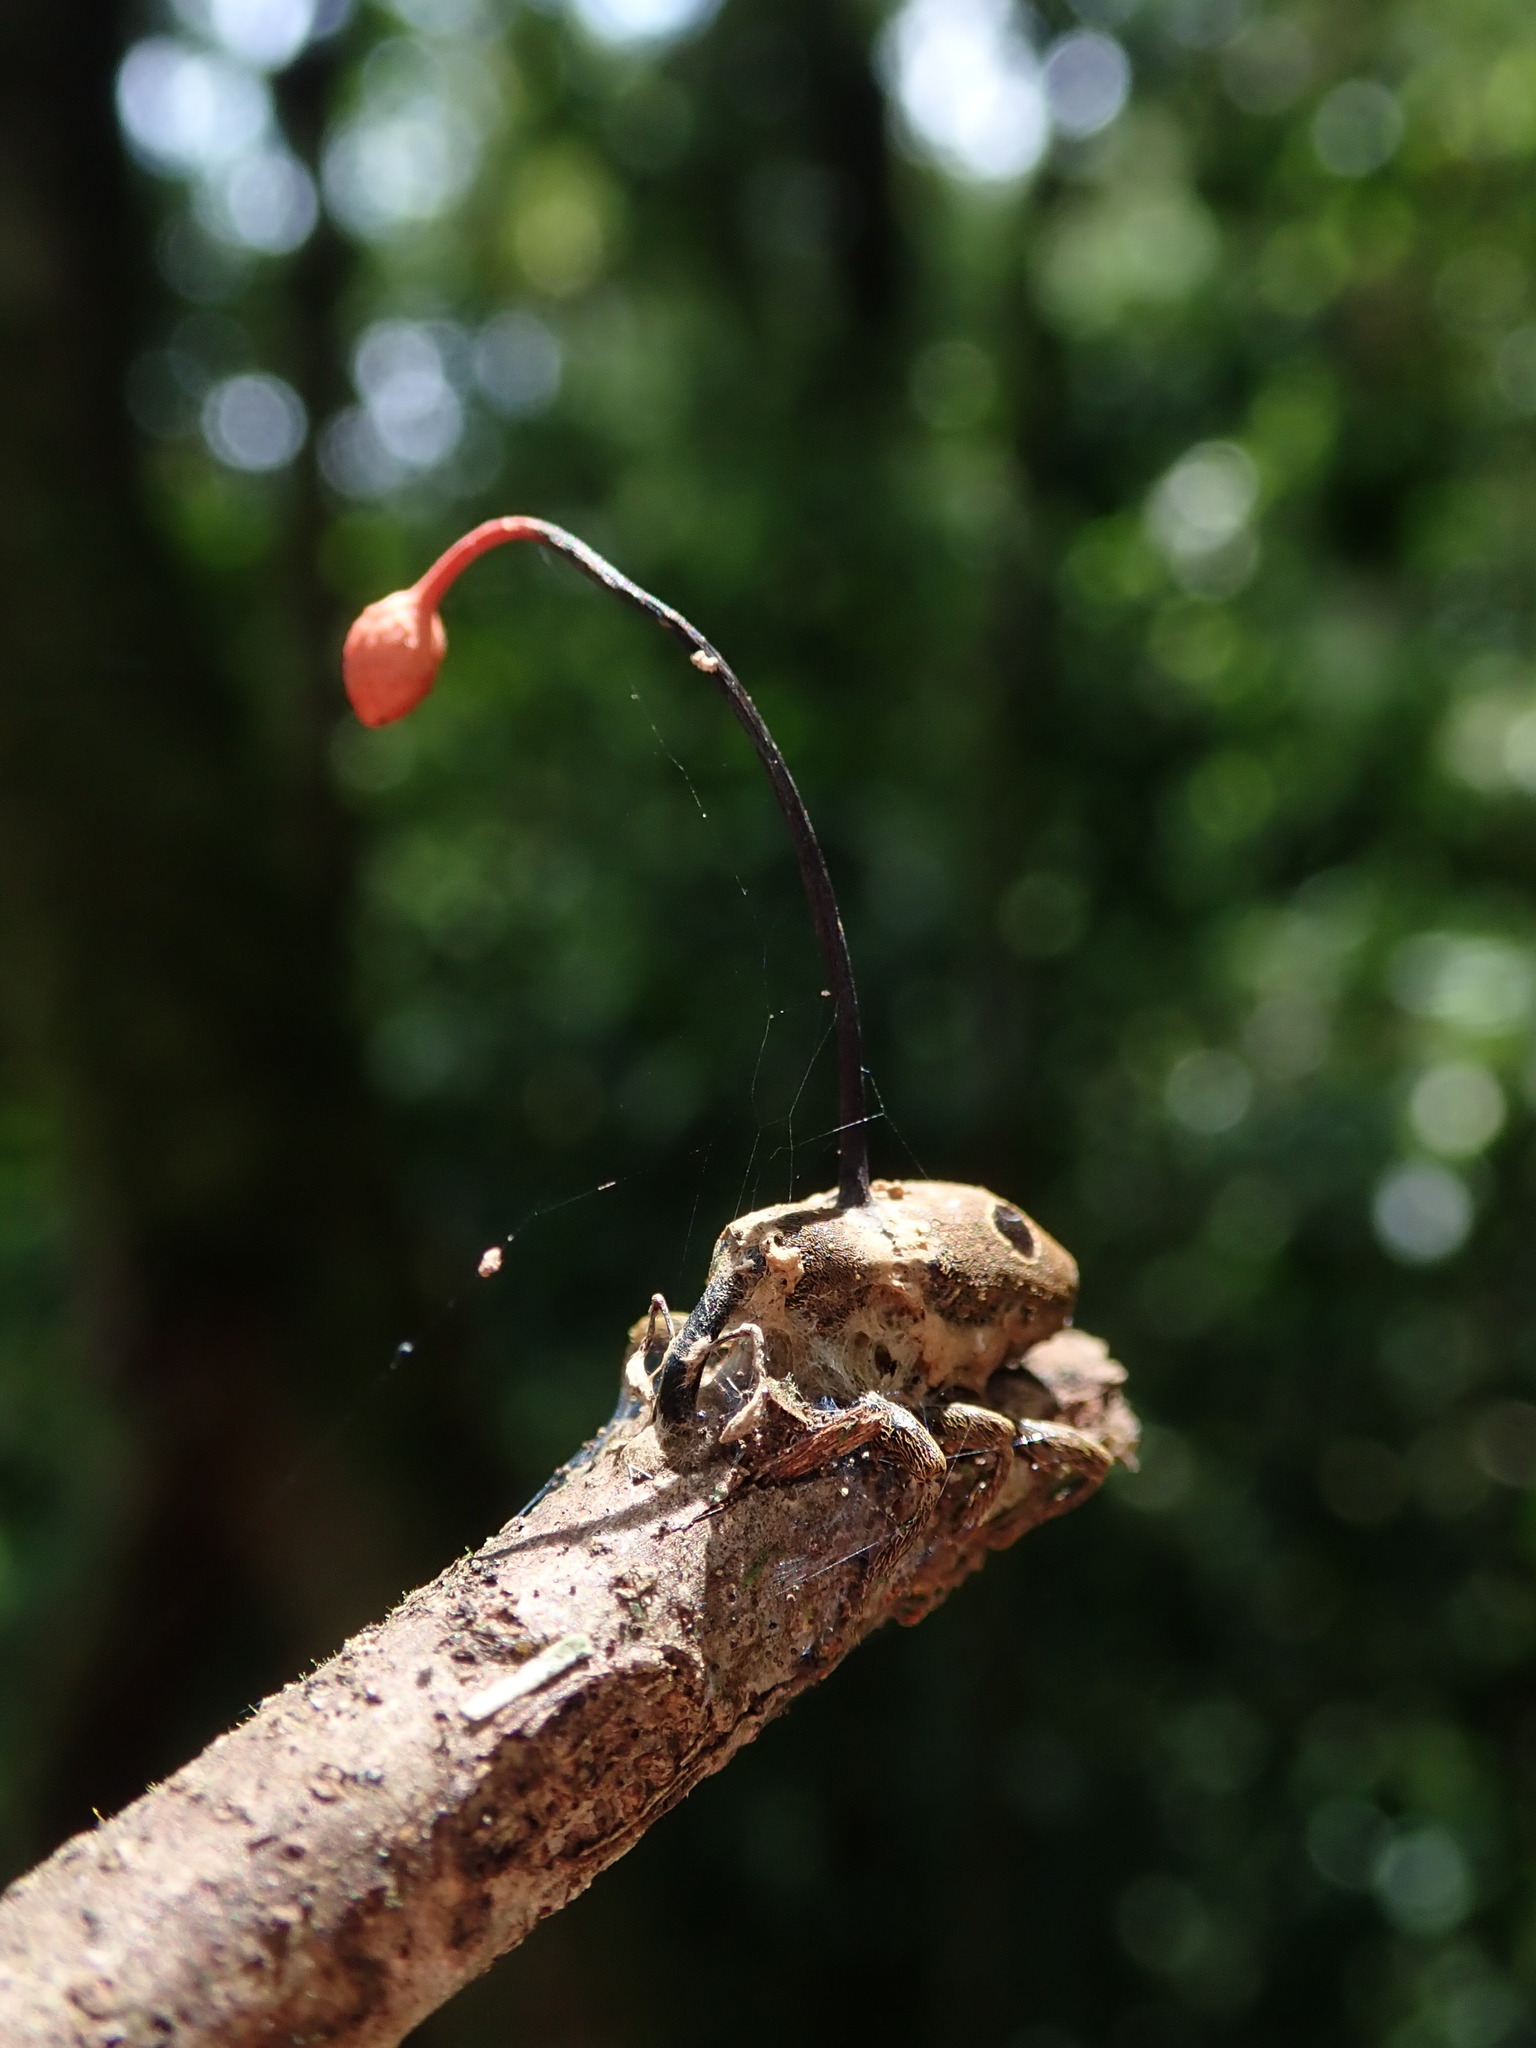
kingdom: Fungi
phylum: Ascomycota
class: Sordariomycetes
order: Hypocreales
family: Ophiocordycipitaceae
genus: Ophiocordyceps
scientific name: Ophiocordyceps curculionum
